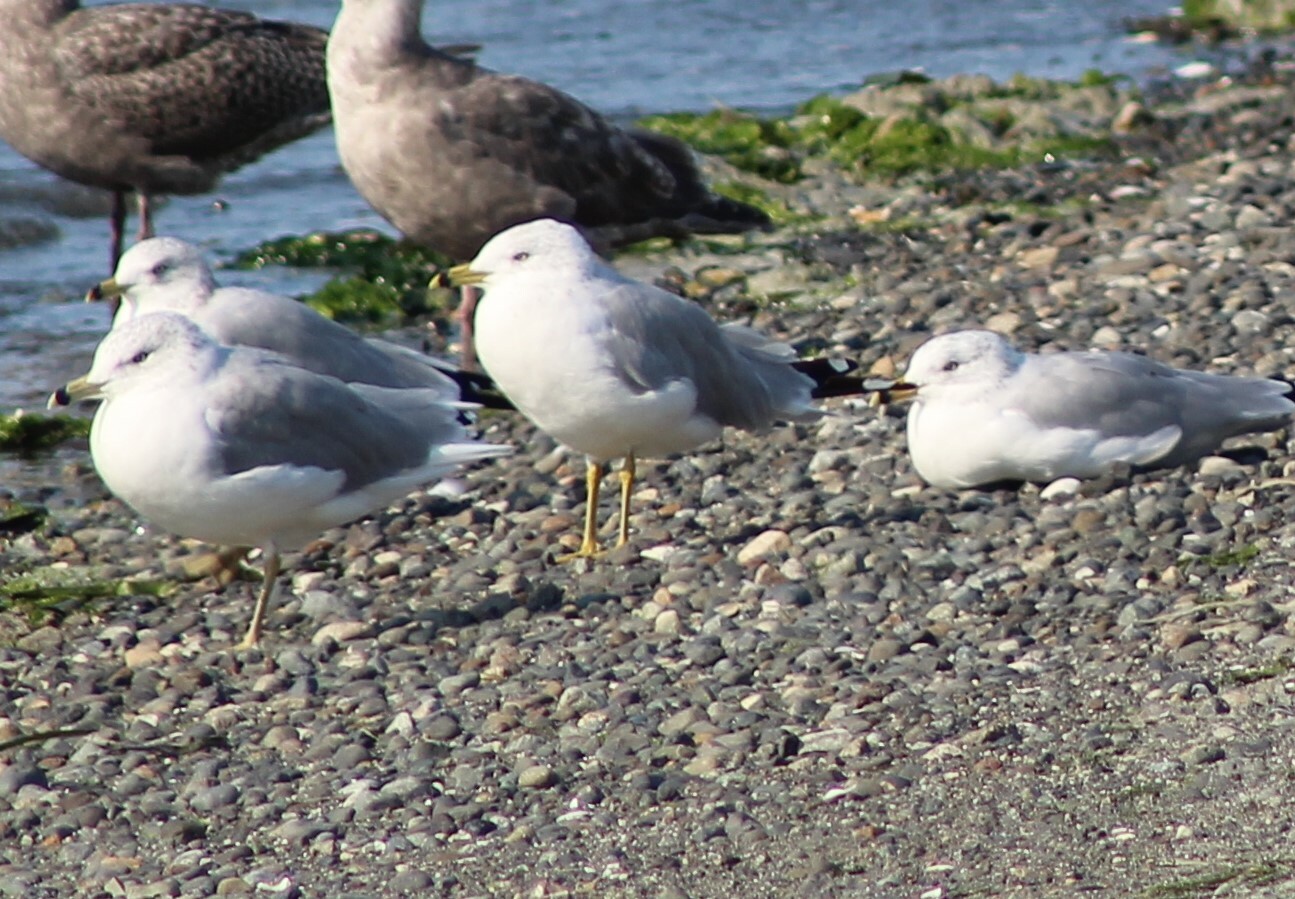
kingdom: Animalia
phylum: Chordata
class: Aves
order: Charadriiformes
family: Laridae
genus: Larus
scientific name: Larus delawarensis
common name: Ring-billed gull
